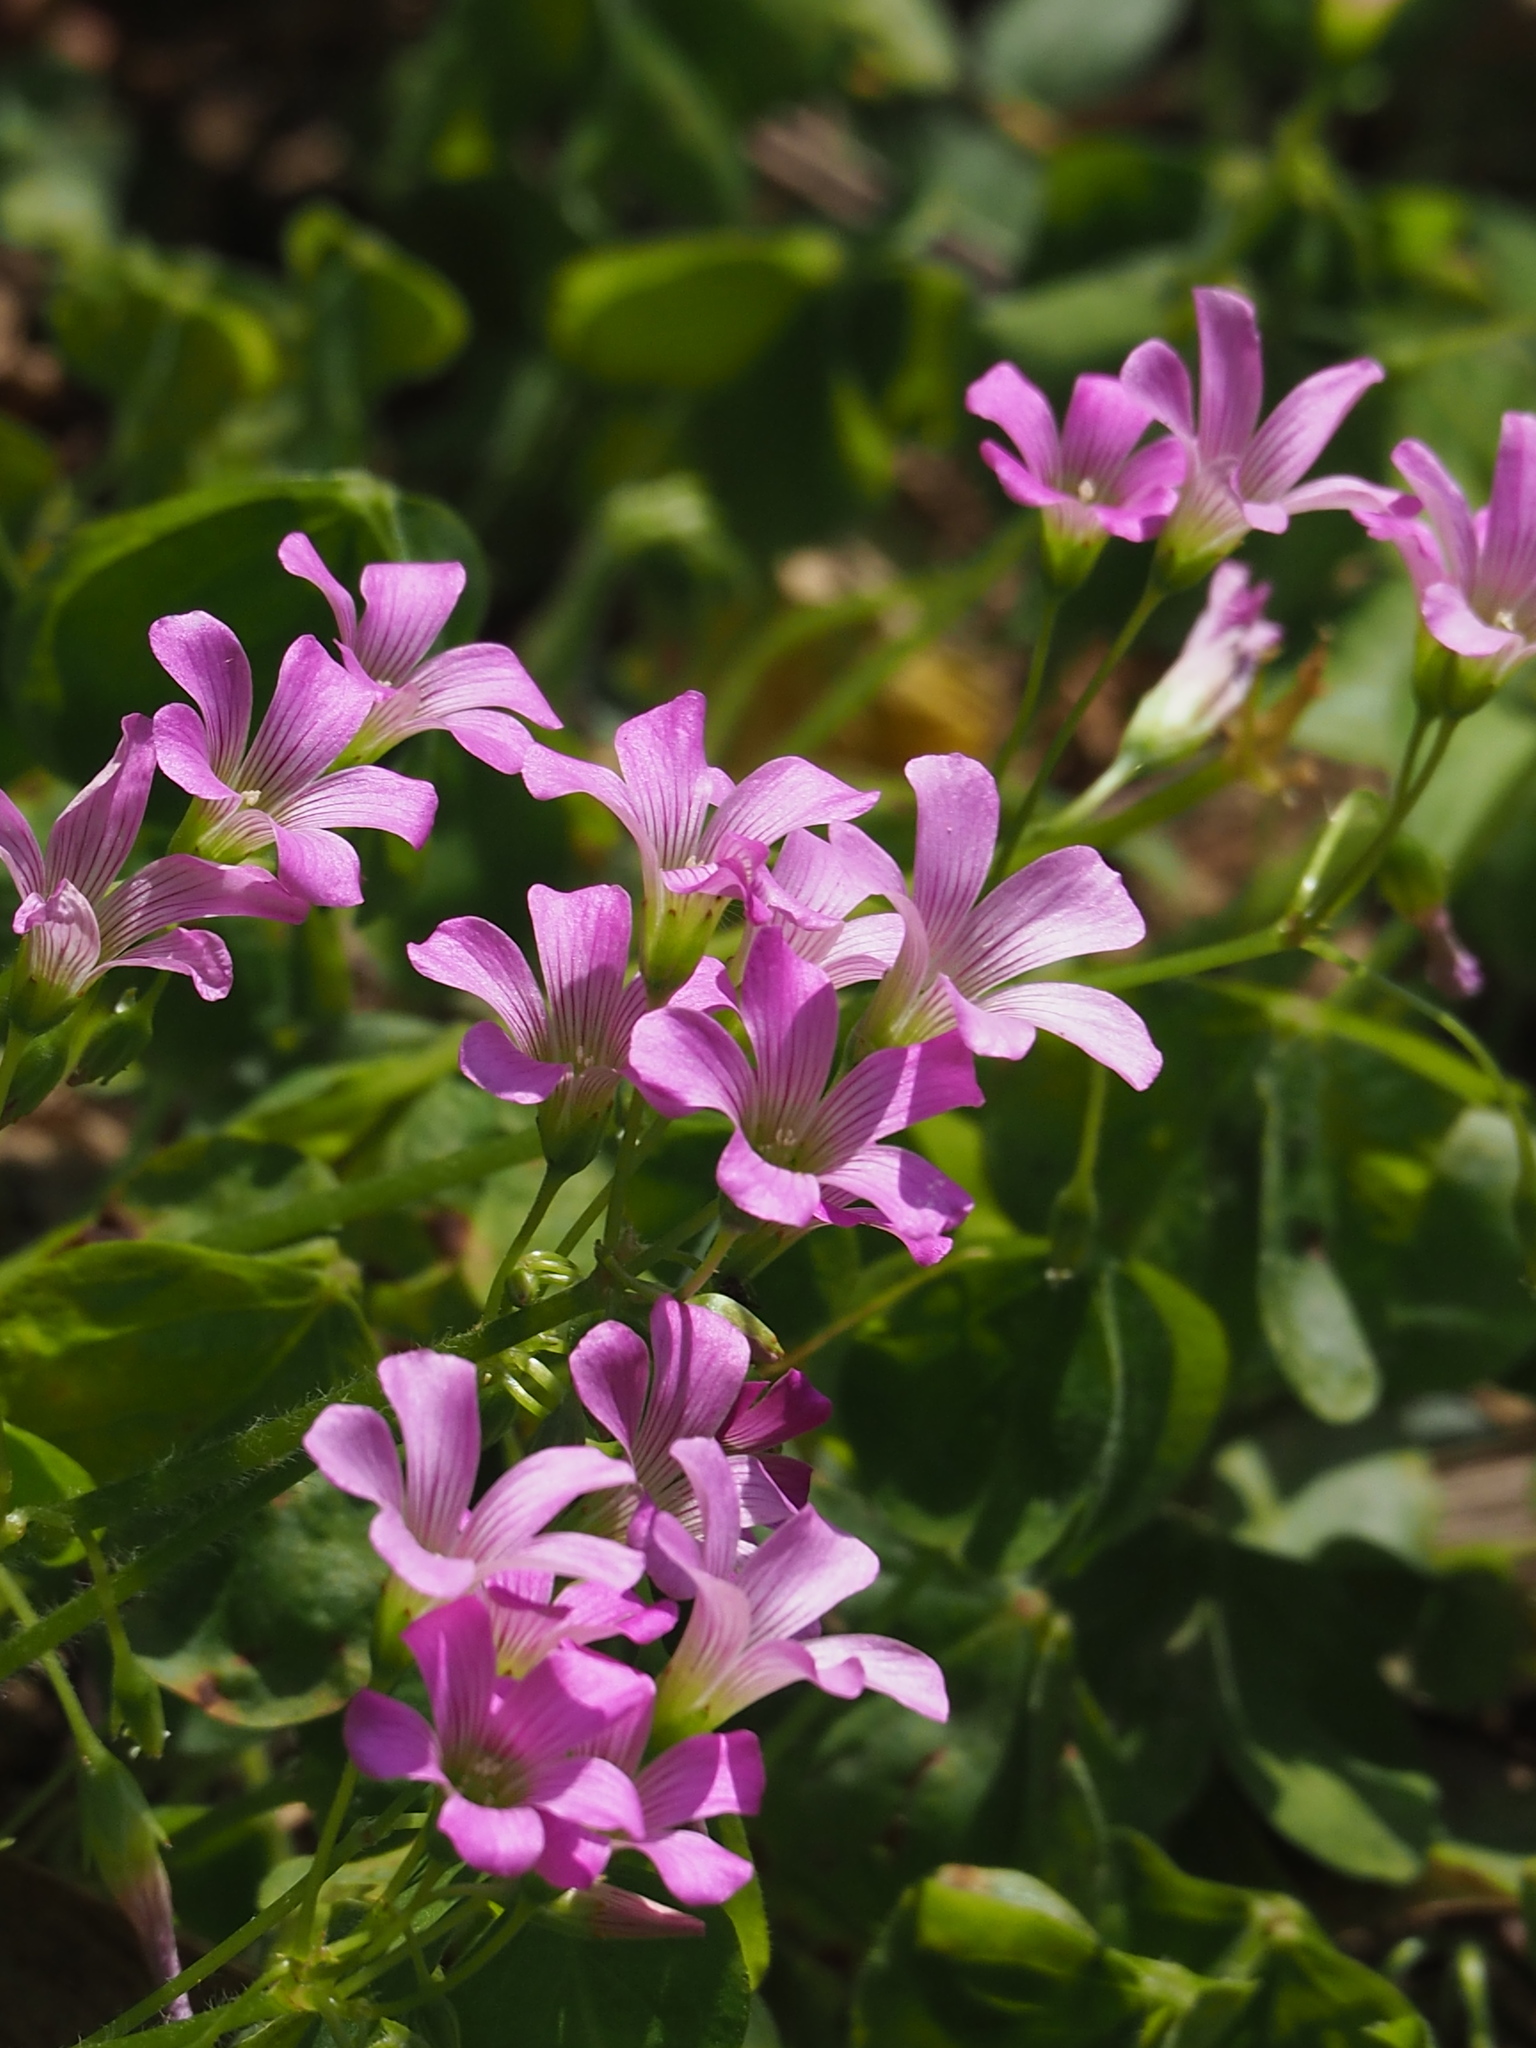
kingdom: Plantae
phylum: Tracheophyta
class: Magnoliopsida
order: Oxalidales
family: Oxalidaceae
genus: Oxalis
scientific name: Oxalis debilis
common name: Large-flowered pink-sorrel
